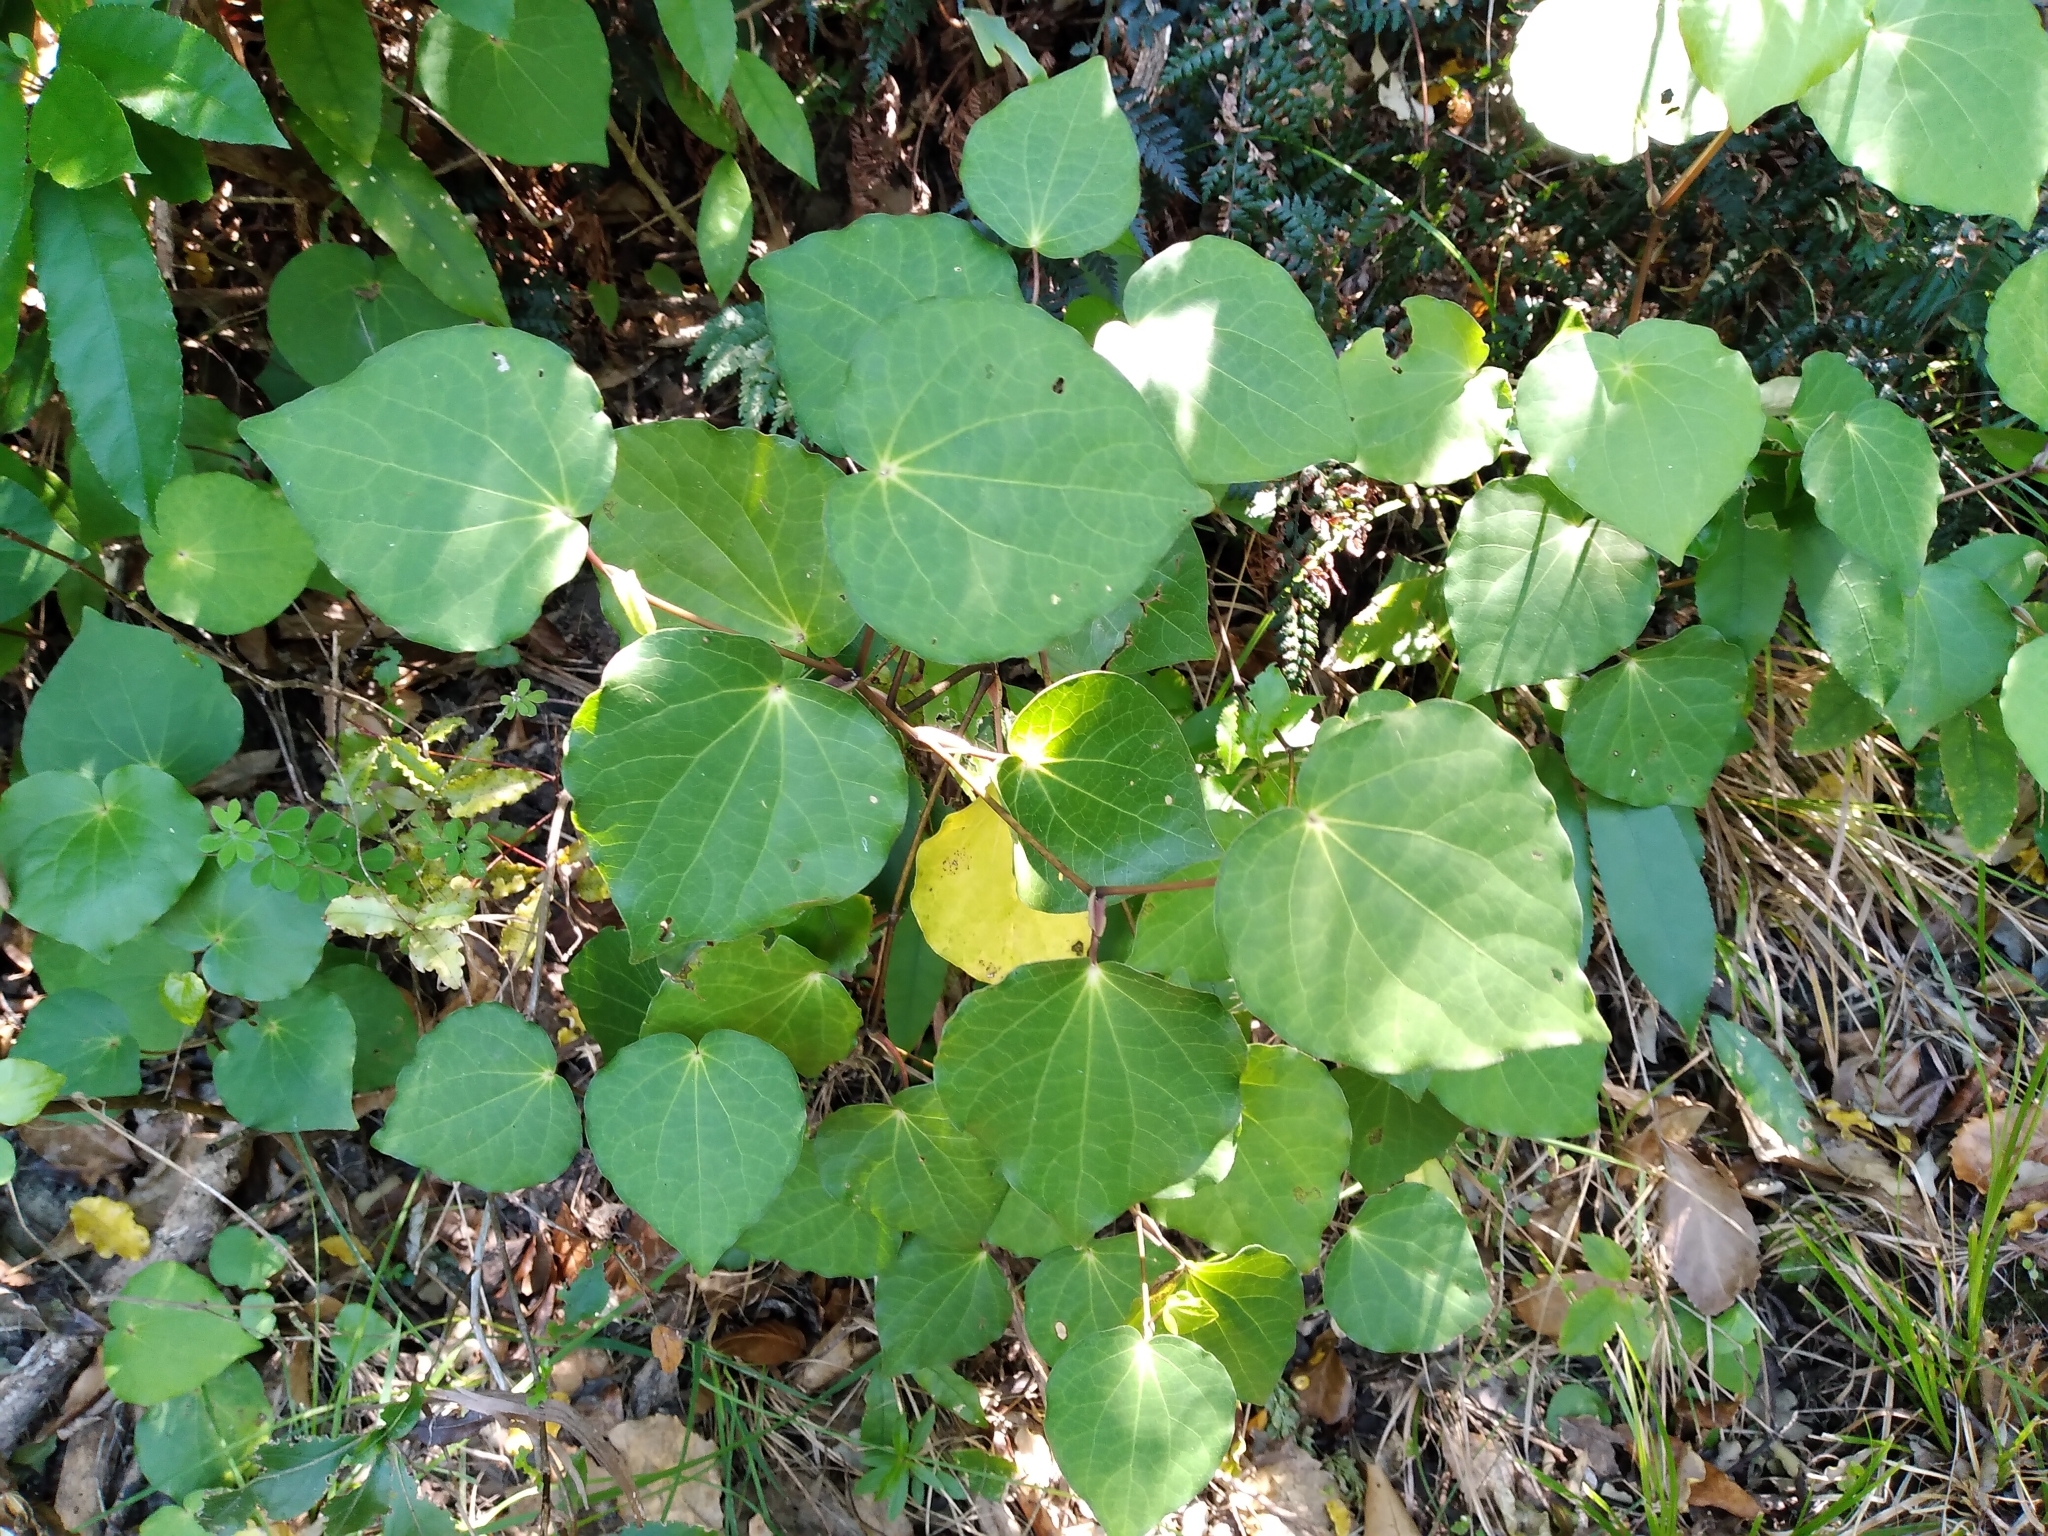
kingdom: Plantae
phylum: Tracheophyta
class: Magnoliopsida
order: Piperales
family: Piperaceae
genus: Macropiper
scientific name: Macropiper excelsum
